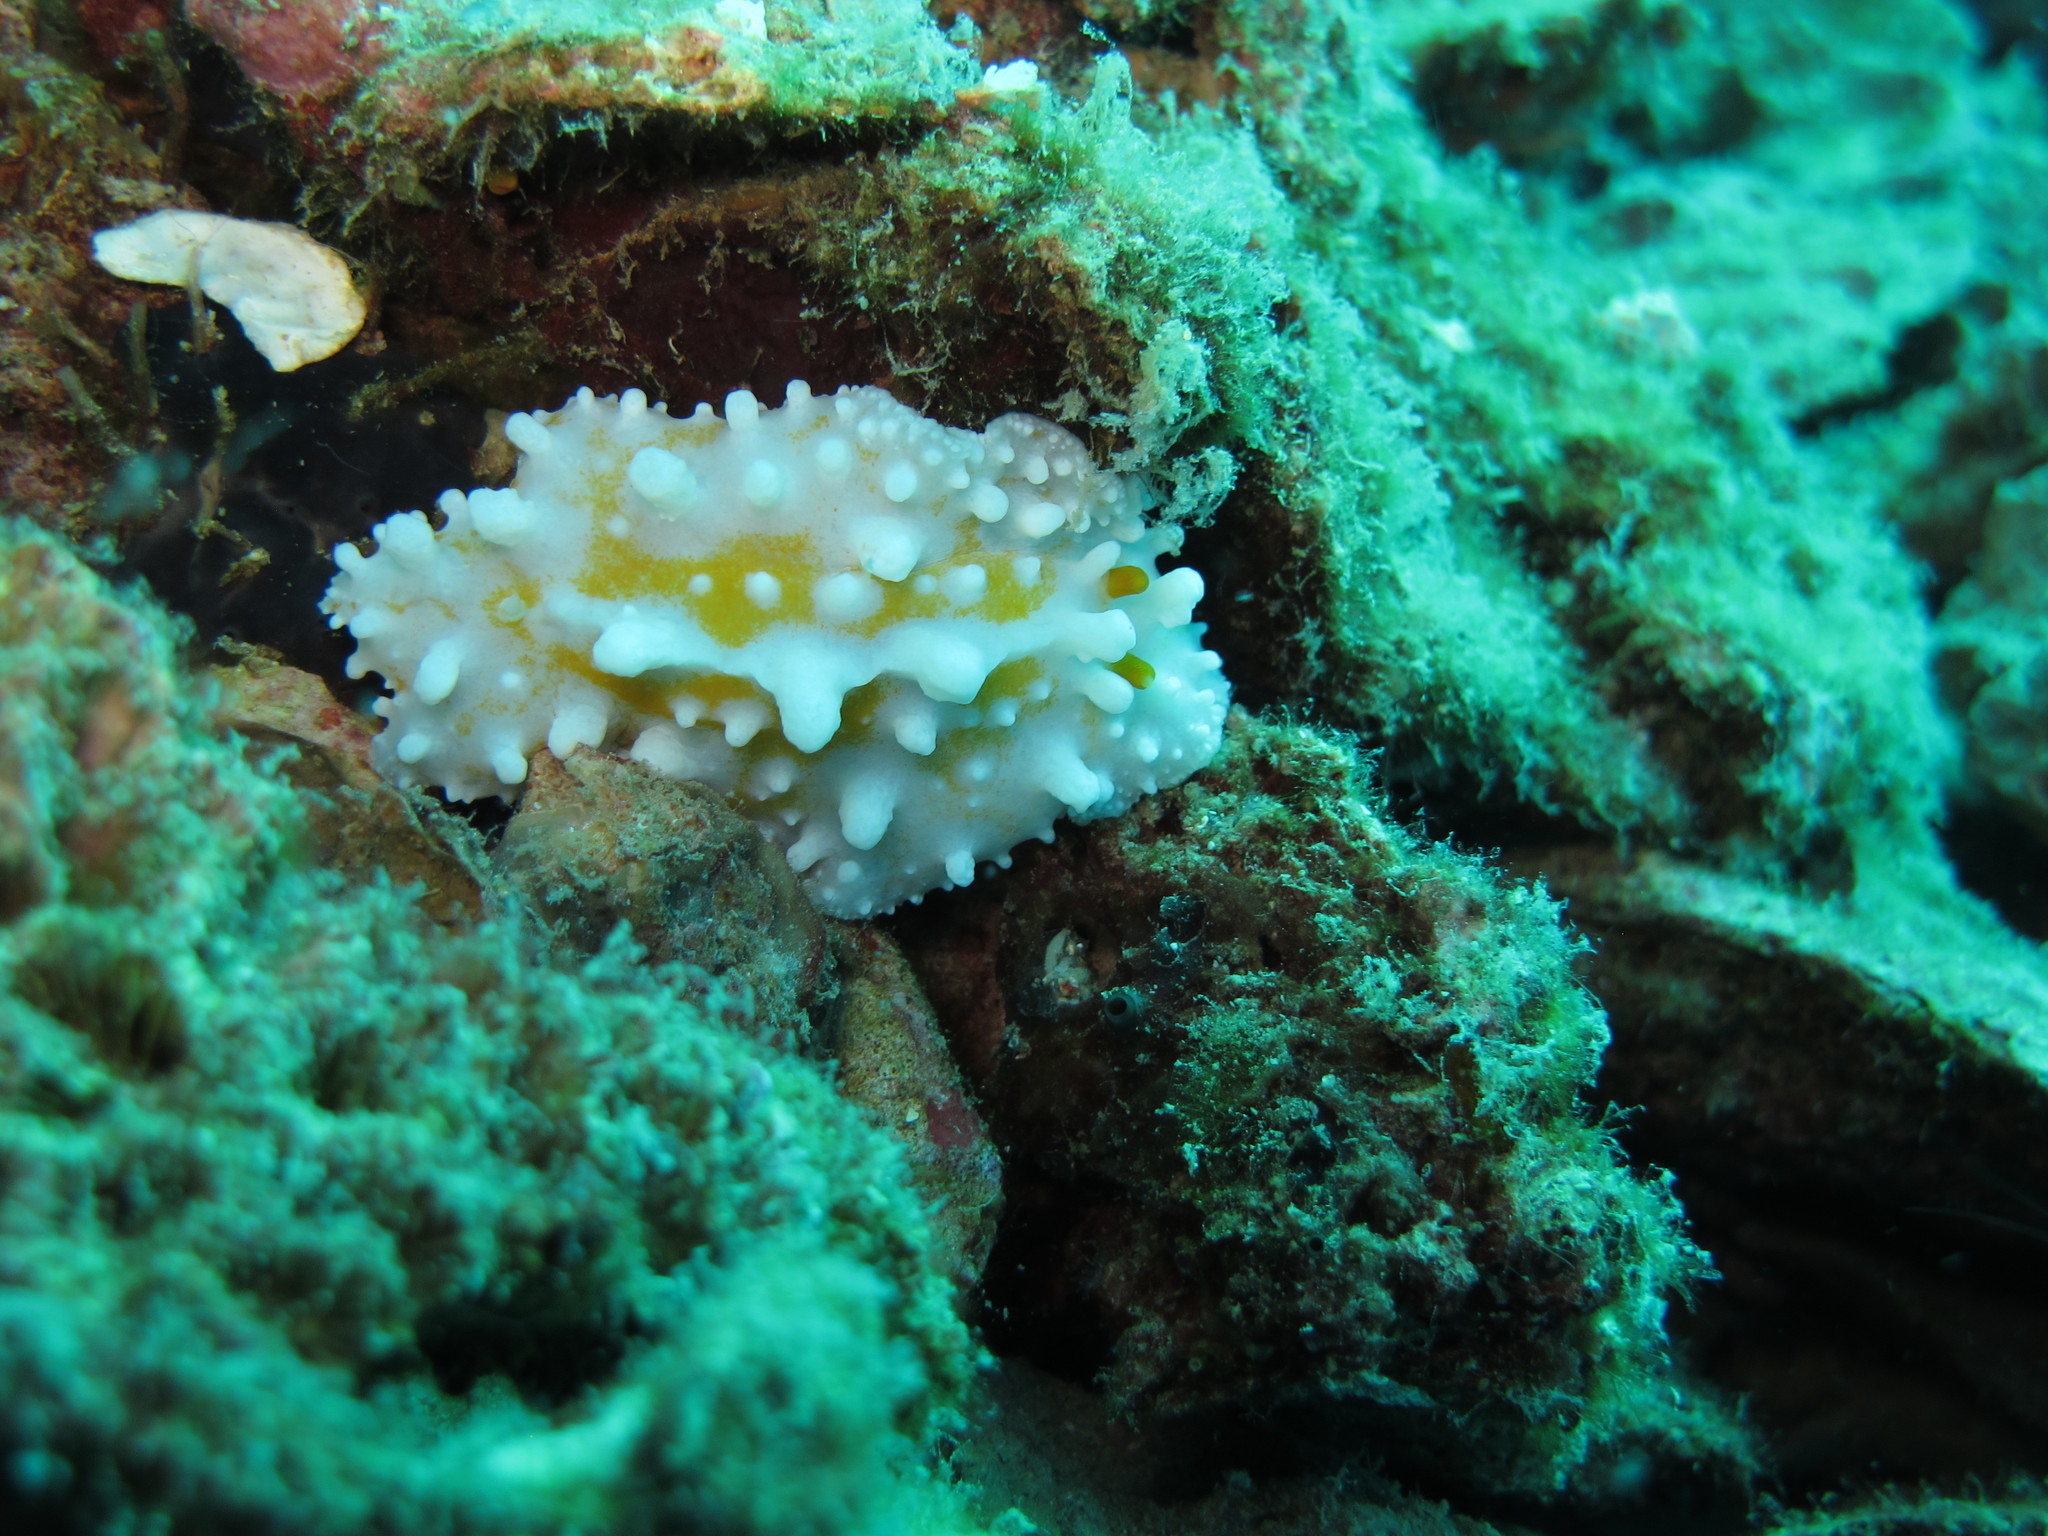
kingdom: Animalia
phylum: Mollusca
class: Gastropoda
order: Nudibranchia
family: Phyllidiidae
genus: Phyllidia
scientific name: Phyllidia ocellata
